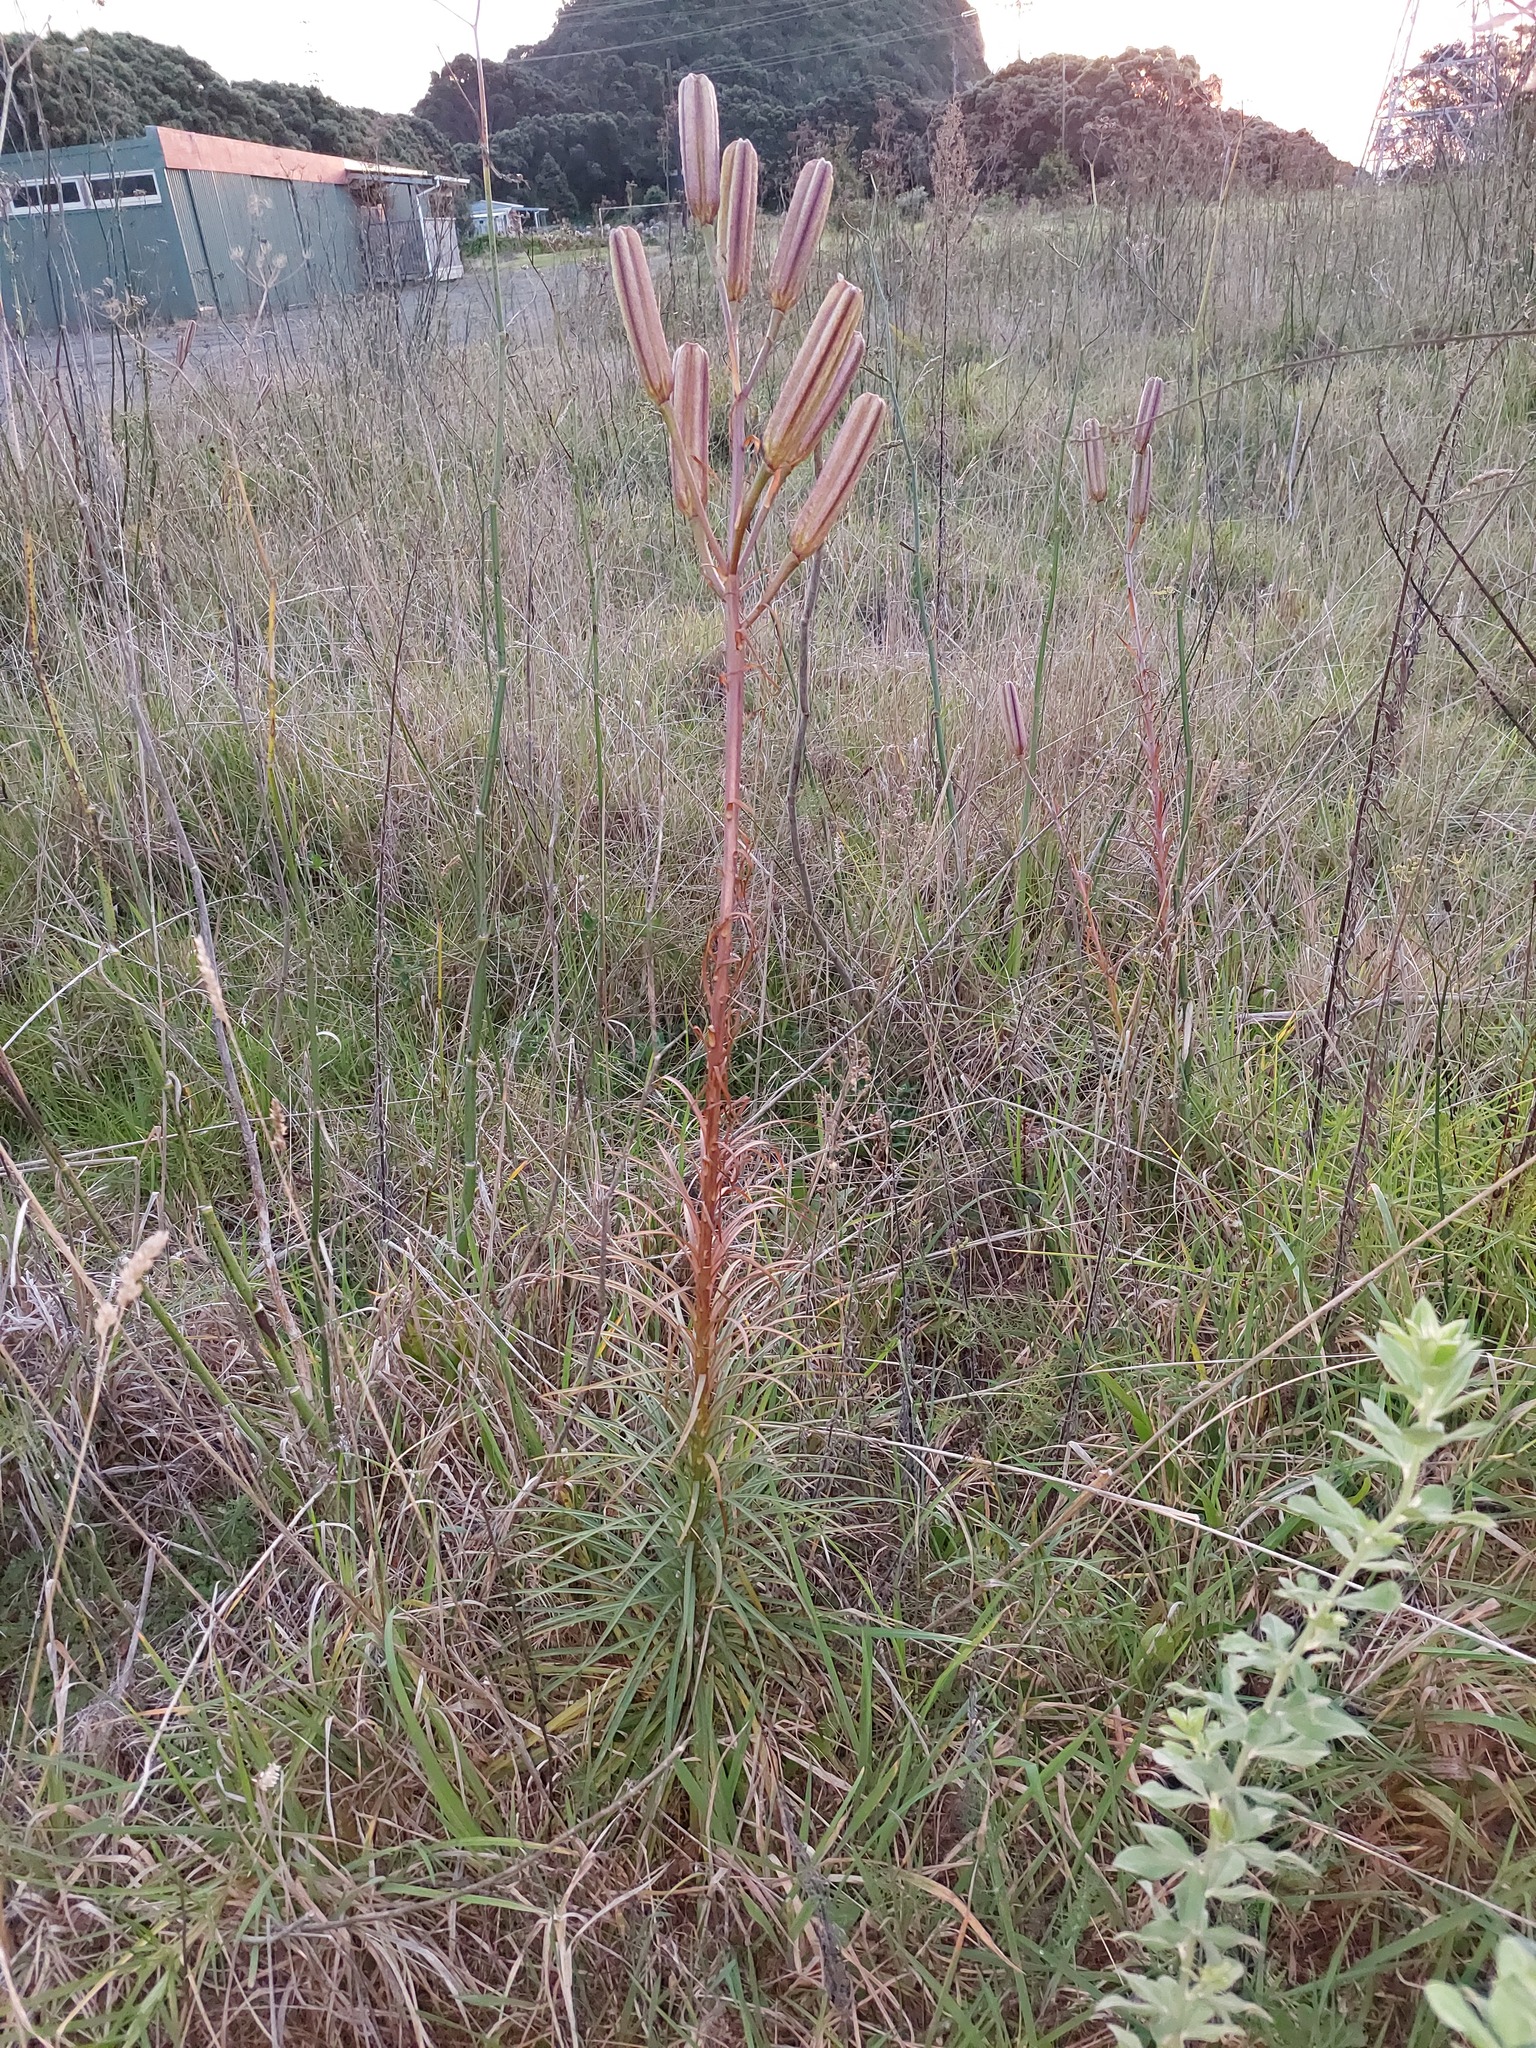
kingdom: Plantae
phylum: Tracheophyta
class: Liliopsida
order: Liliales
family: Liliaceae
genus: Lilium
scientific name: Lilium formosanum
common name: Formosa lily
